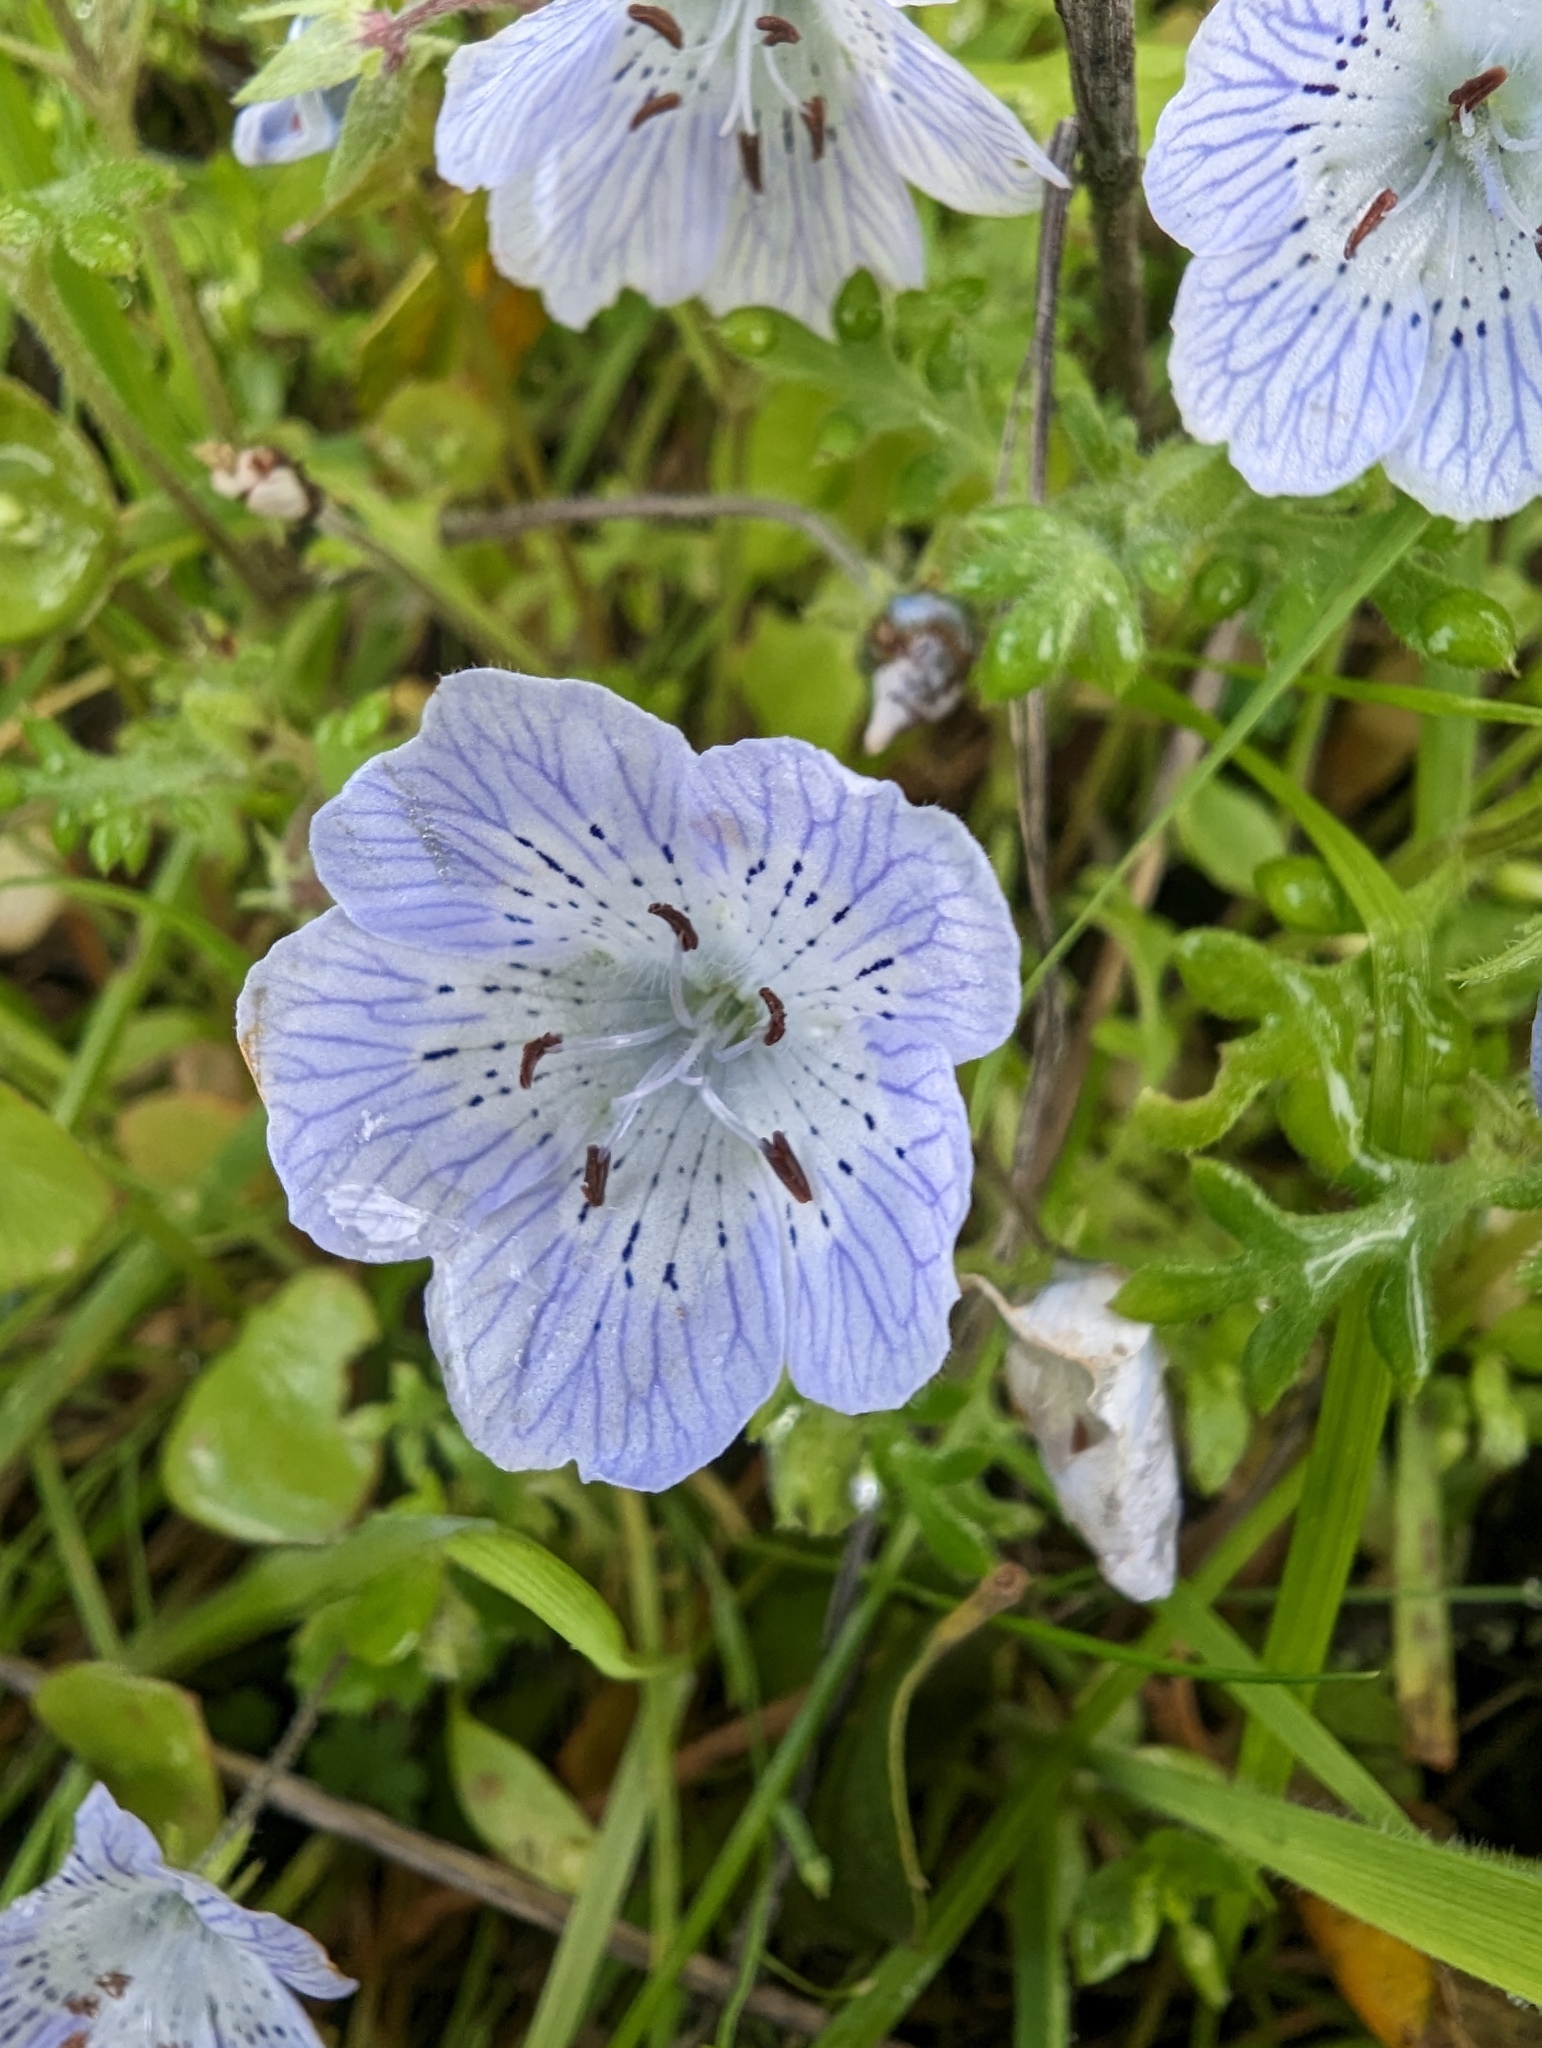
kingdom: Plantae
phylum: Tracheophyta
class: Magnoliopsida
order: Boraginales
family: Hydrophyllaceae
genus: Nemophila
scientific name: Nemophila menziesii
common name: Baby's-blue-eyes
